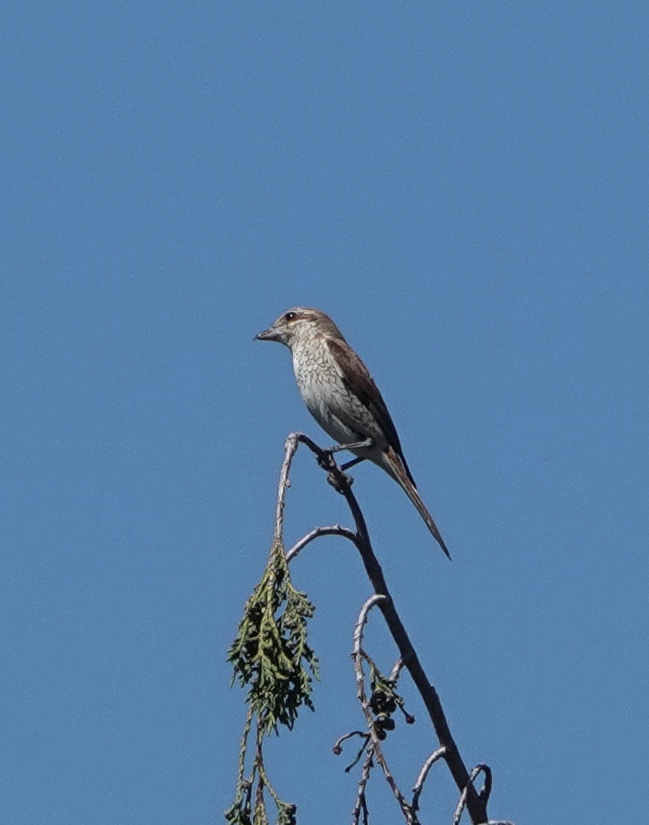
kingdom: Animalia
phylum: Chordata
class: Aves
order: Passeriformes
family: Laniidae
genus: Lanius
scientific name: Lanius collurio
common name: Red-backed shrike
